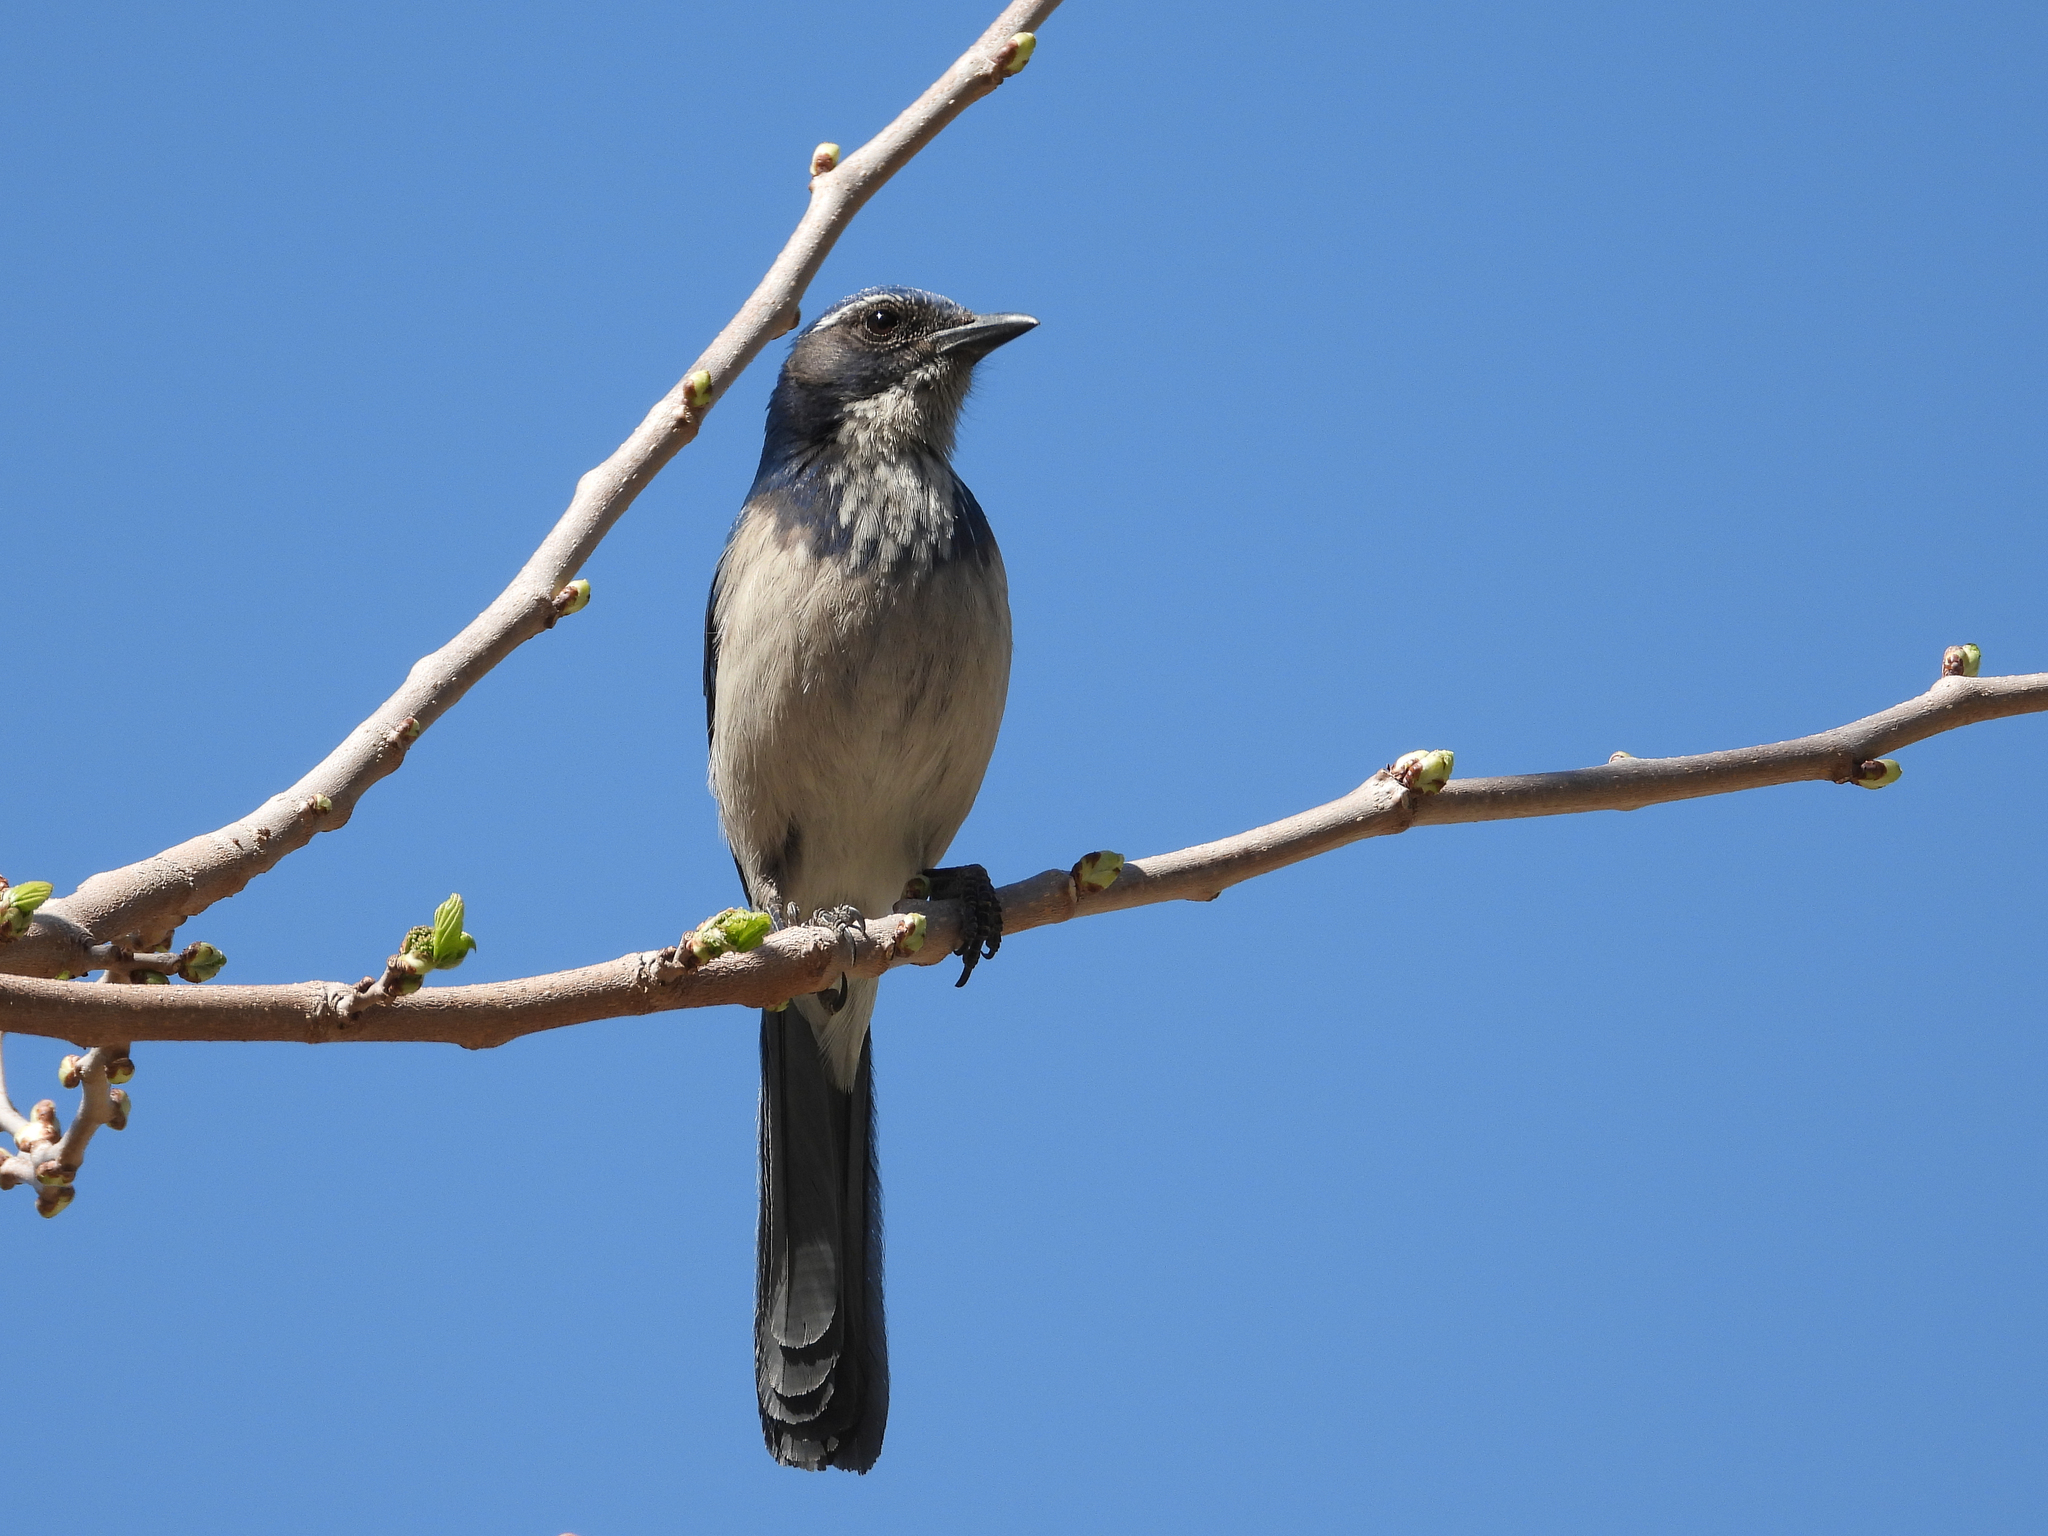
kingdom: Animalia
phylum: Chordata
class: Aves
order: Passeriformes
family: Corvidae
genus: Aphelocoma
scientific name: Aphelocoma californica
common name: California scrub-jay
